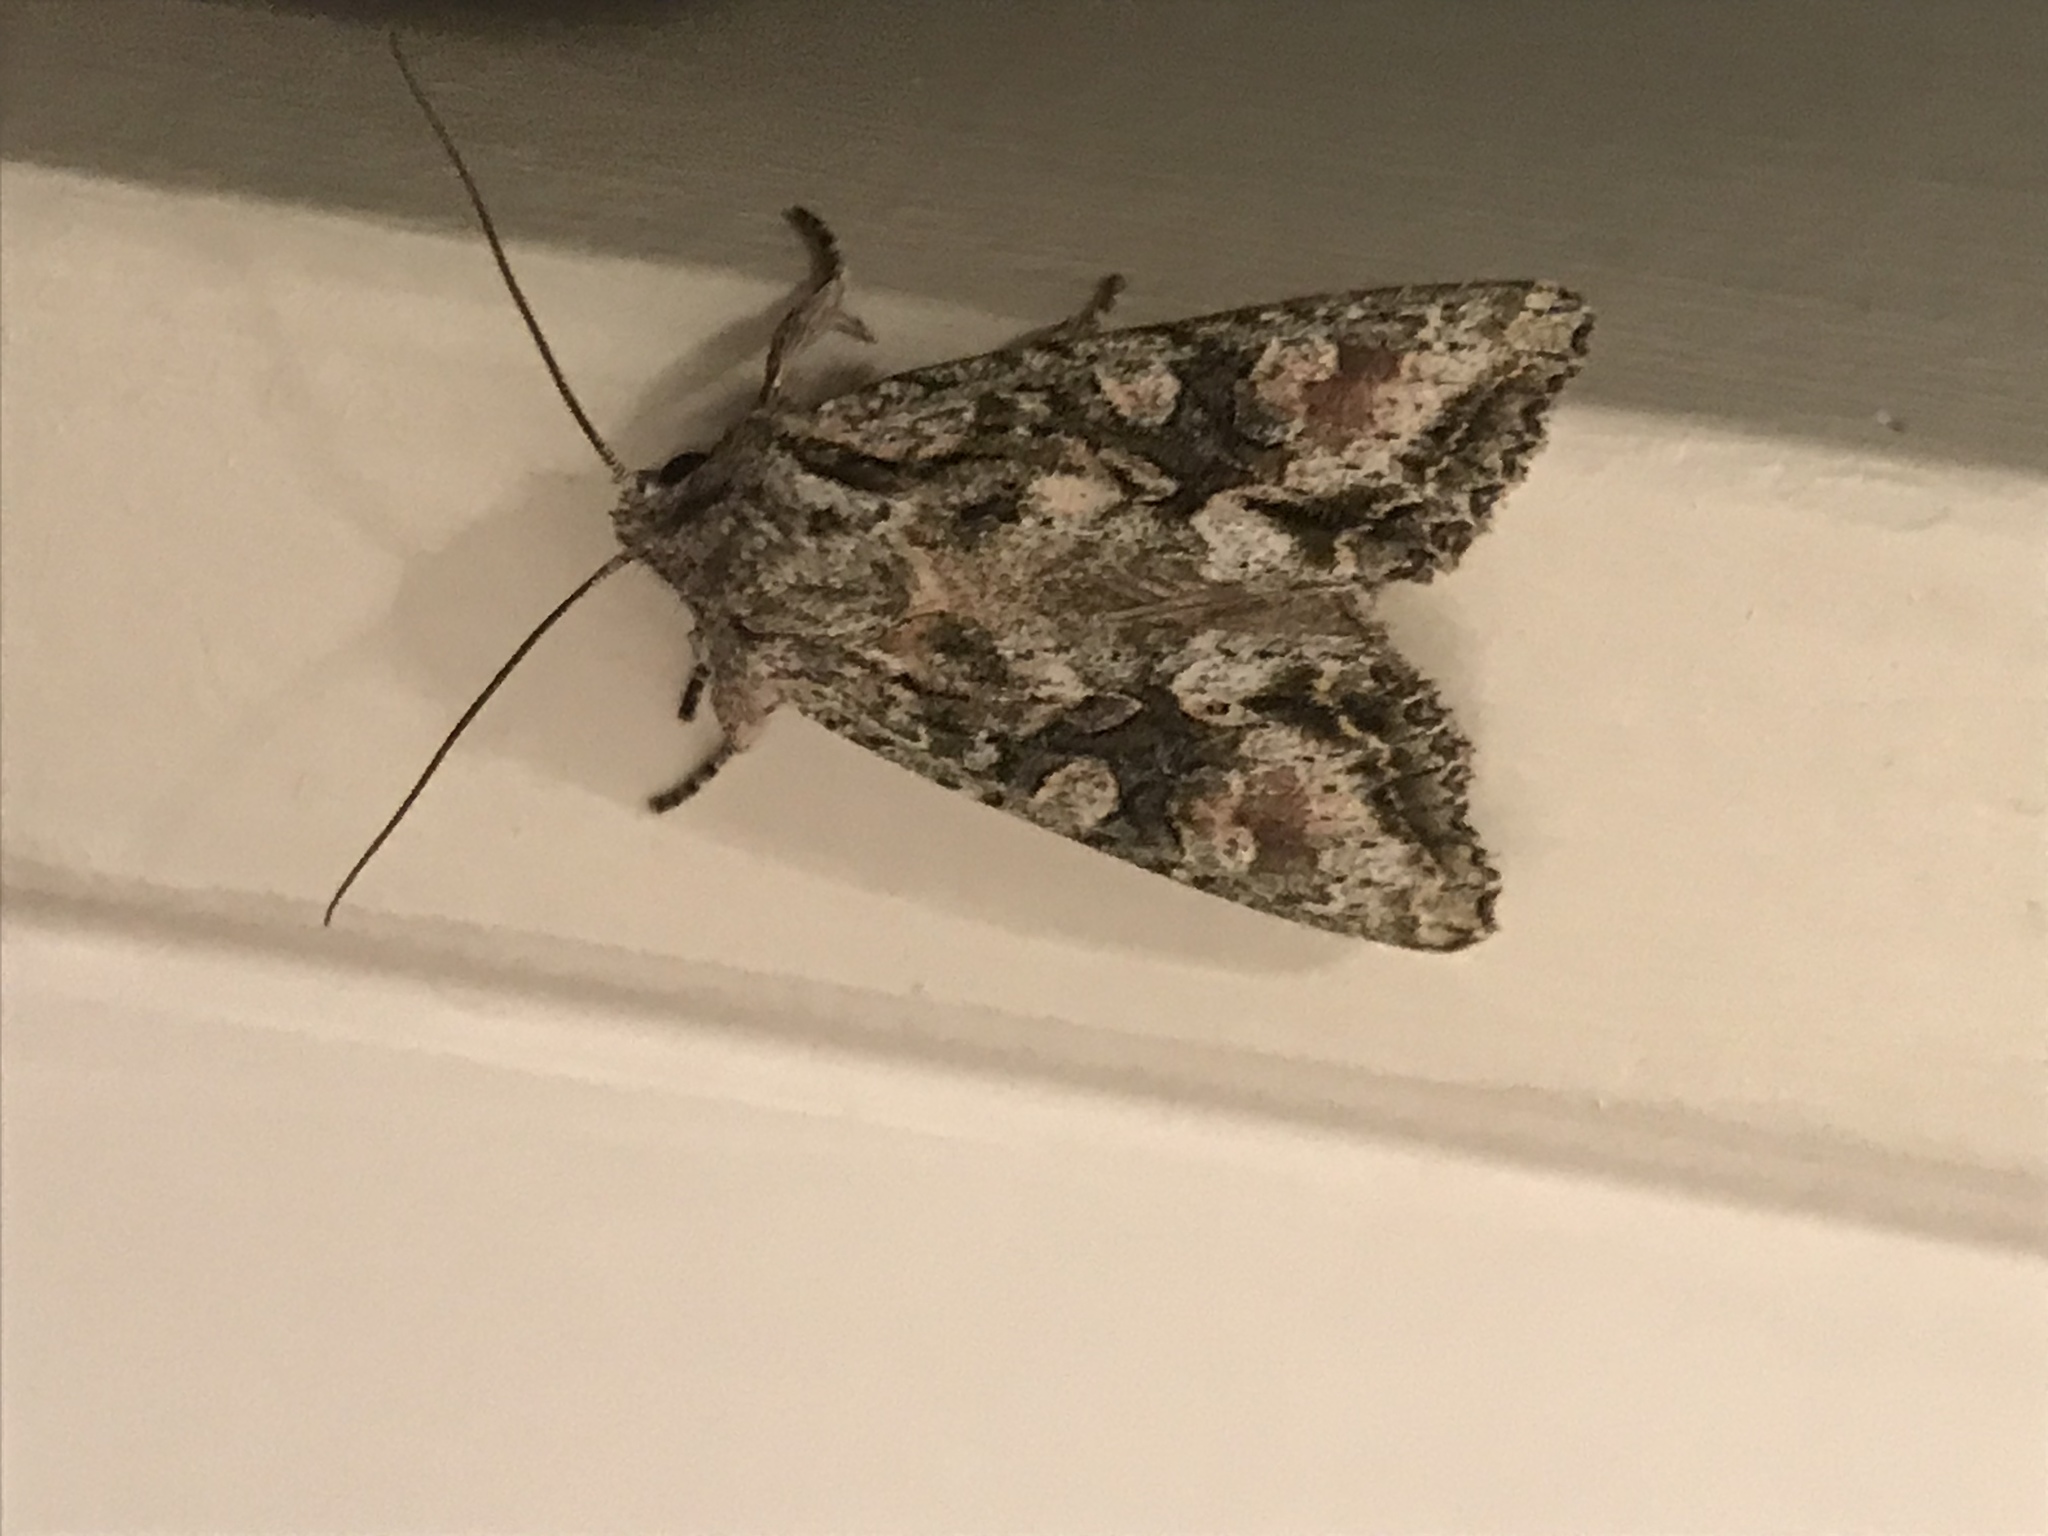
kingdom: Animalia
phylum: Arthropoda
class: Insecta
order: Lepidoptera
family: Noctuidae
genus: Ichneutica
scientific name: Ichneutica mutans
